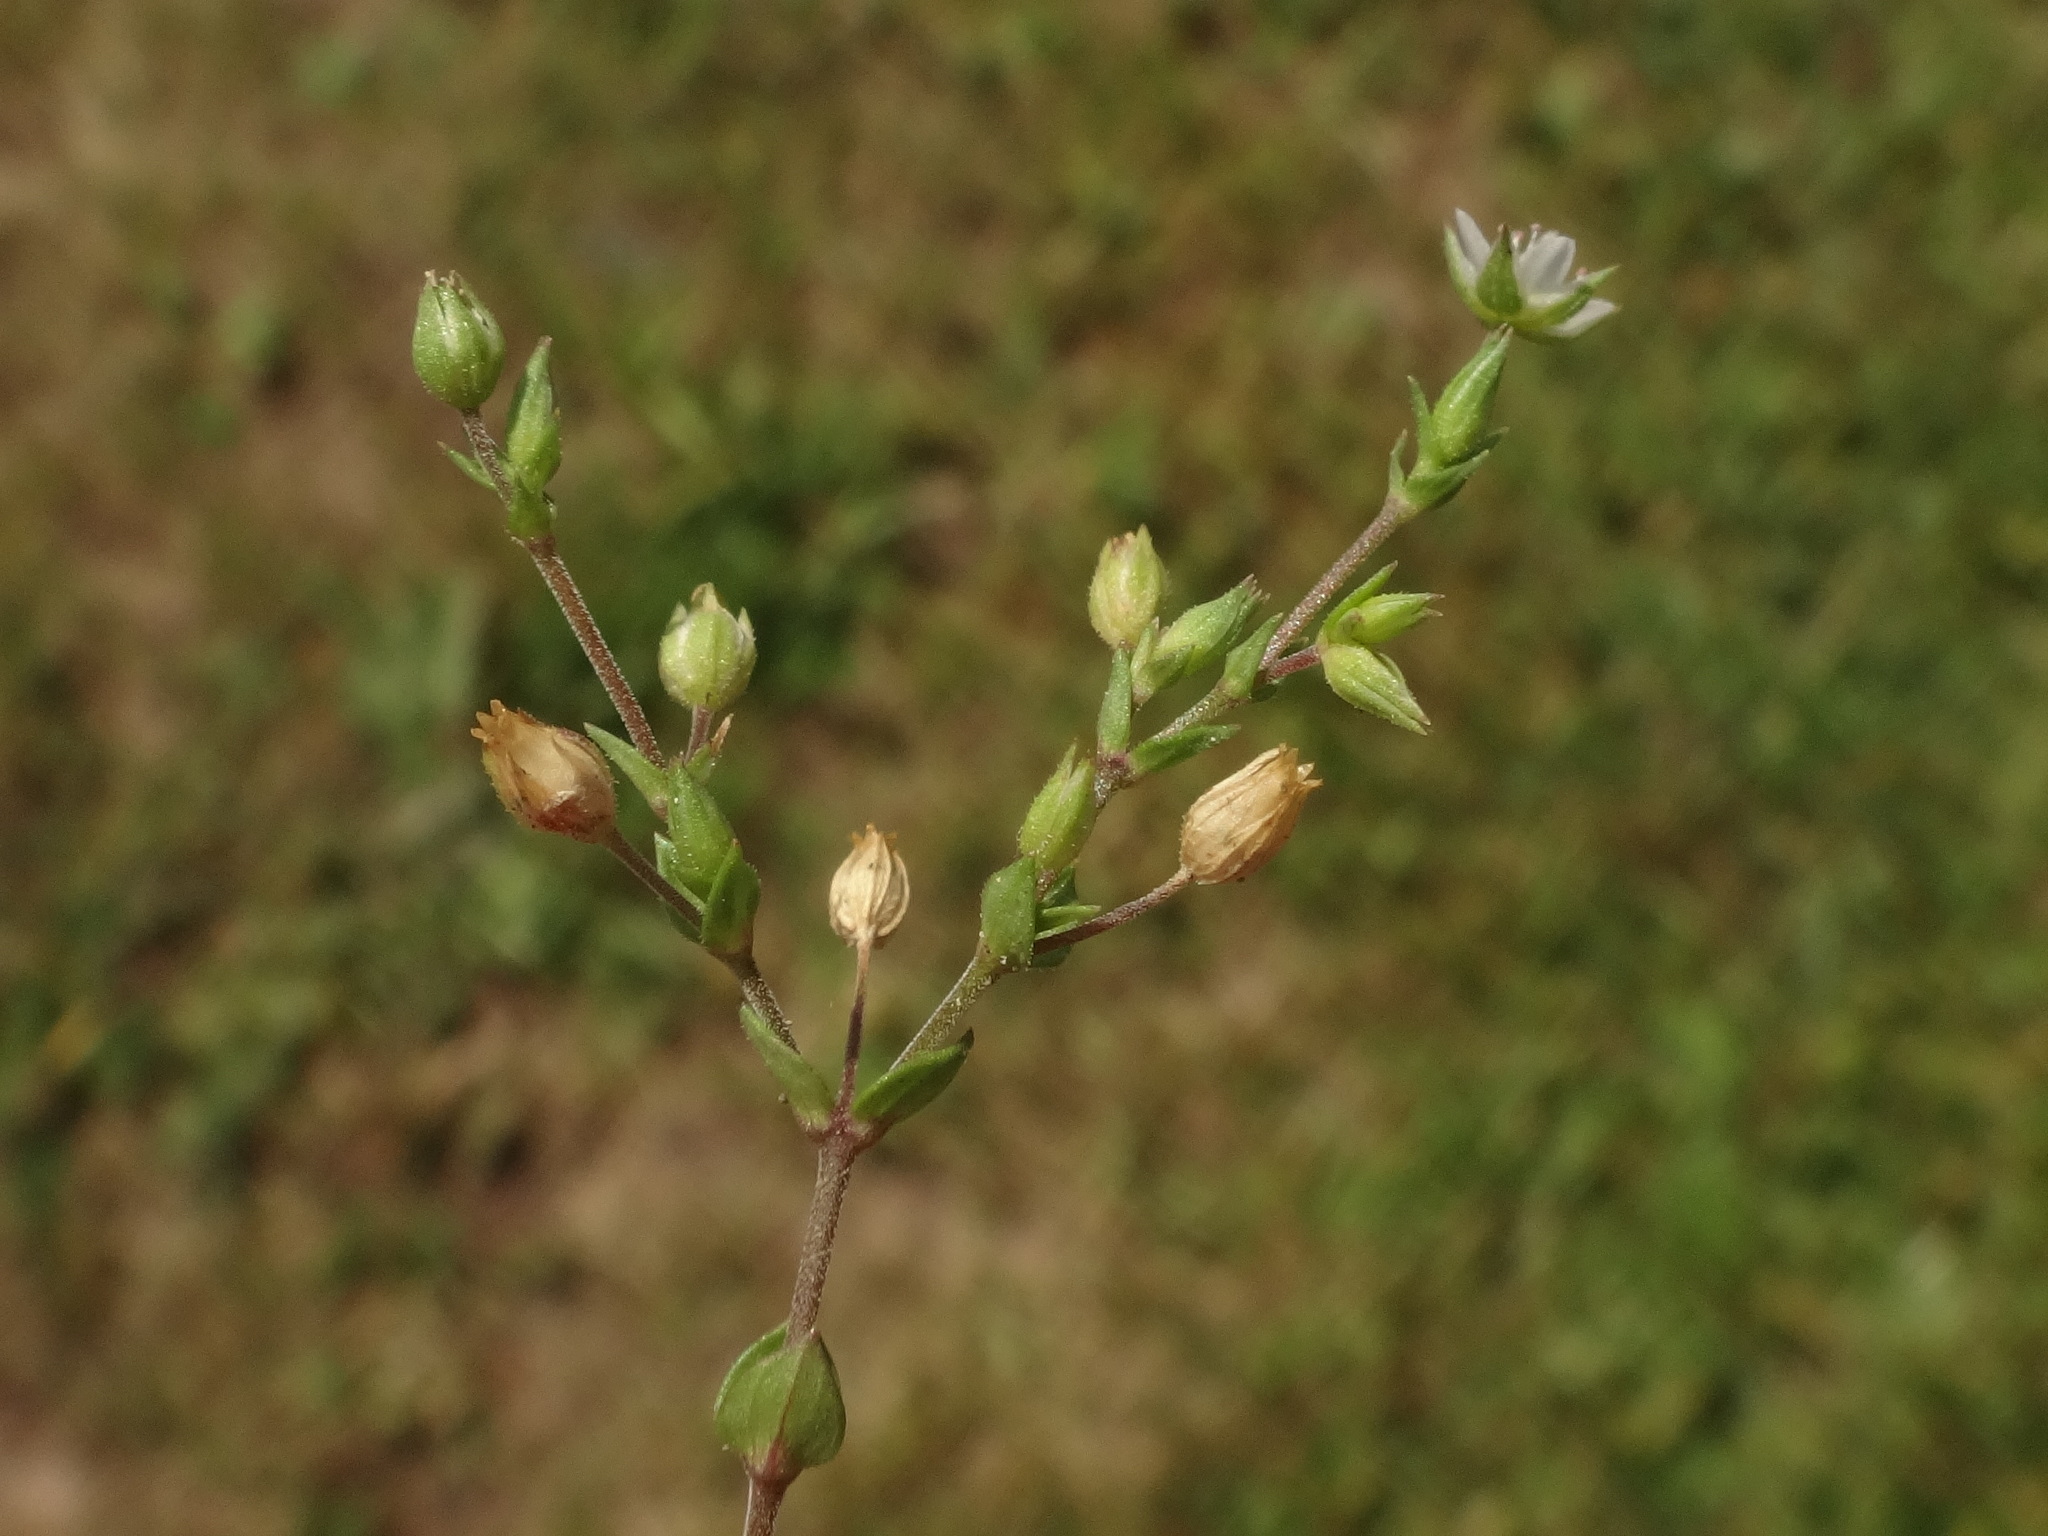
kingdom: Plantae
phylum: Tracheophyta
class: Magnoliopsida
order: Caryophyllales
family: Caryophyllaceae
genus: Arenaria
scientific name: Arenaria serpyllifolia
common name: Thyme-leaved sandwort
